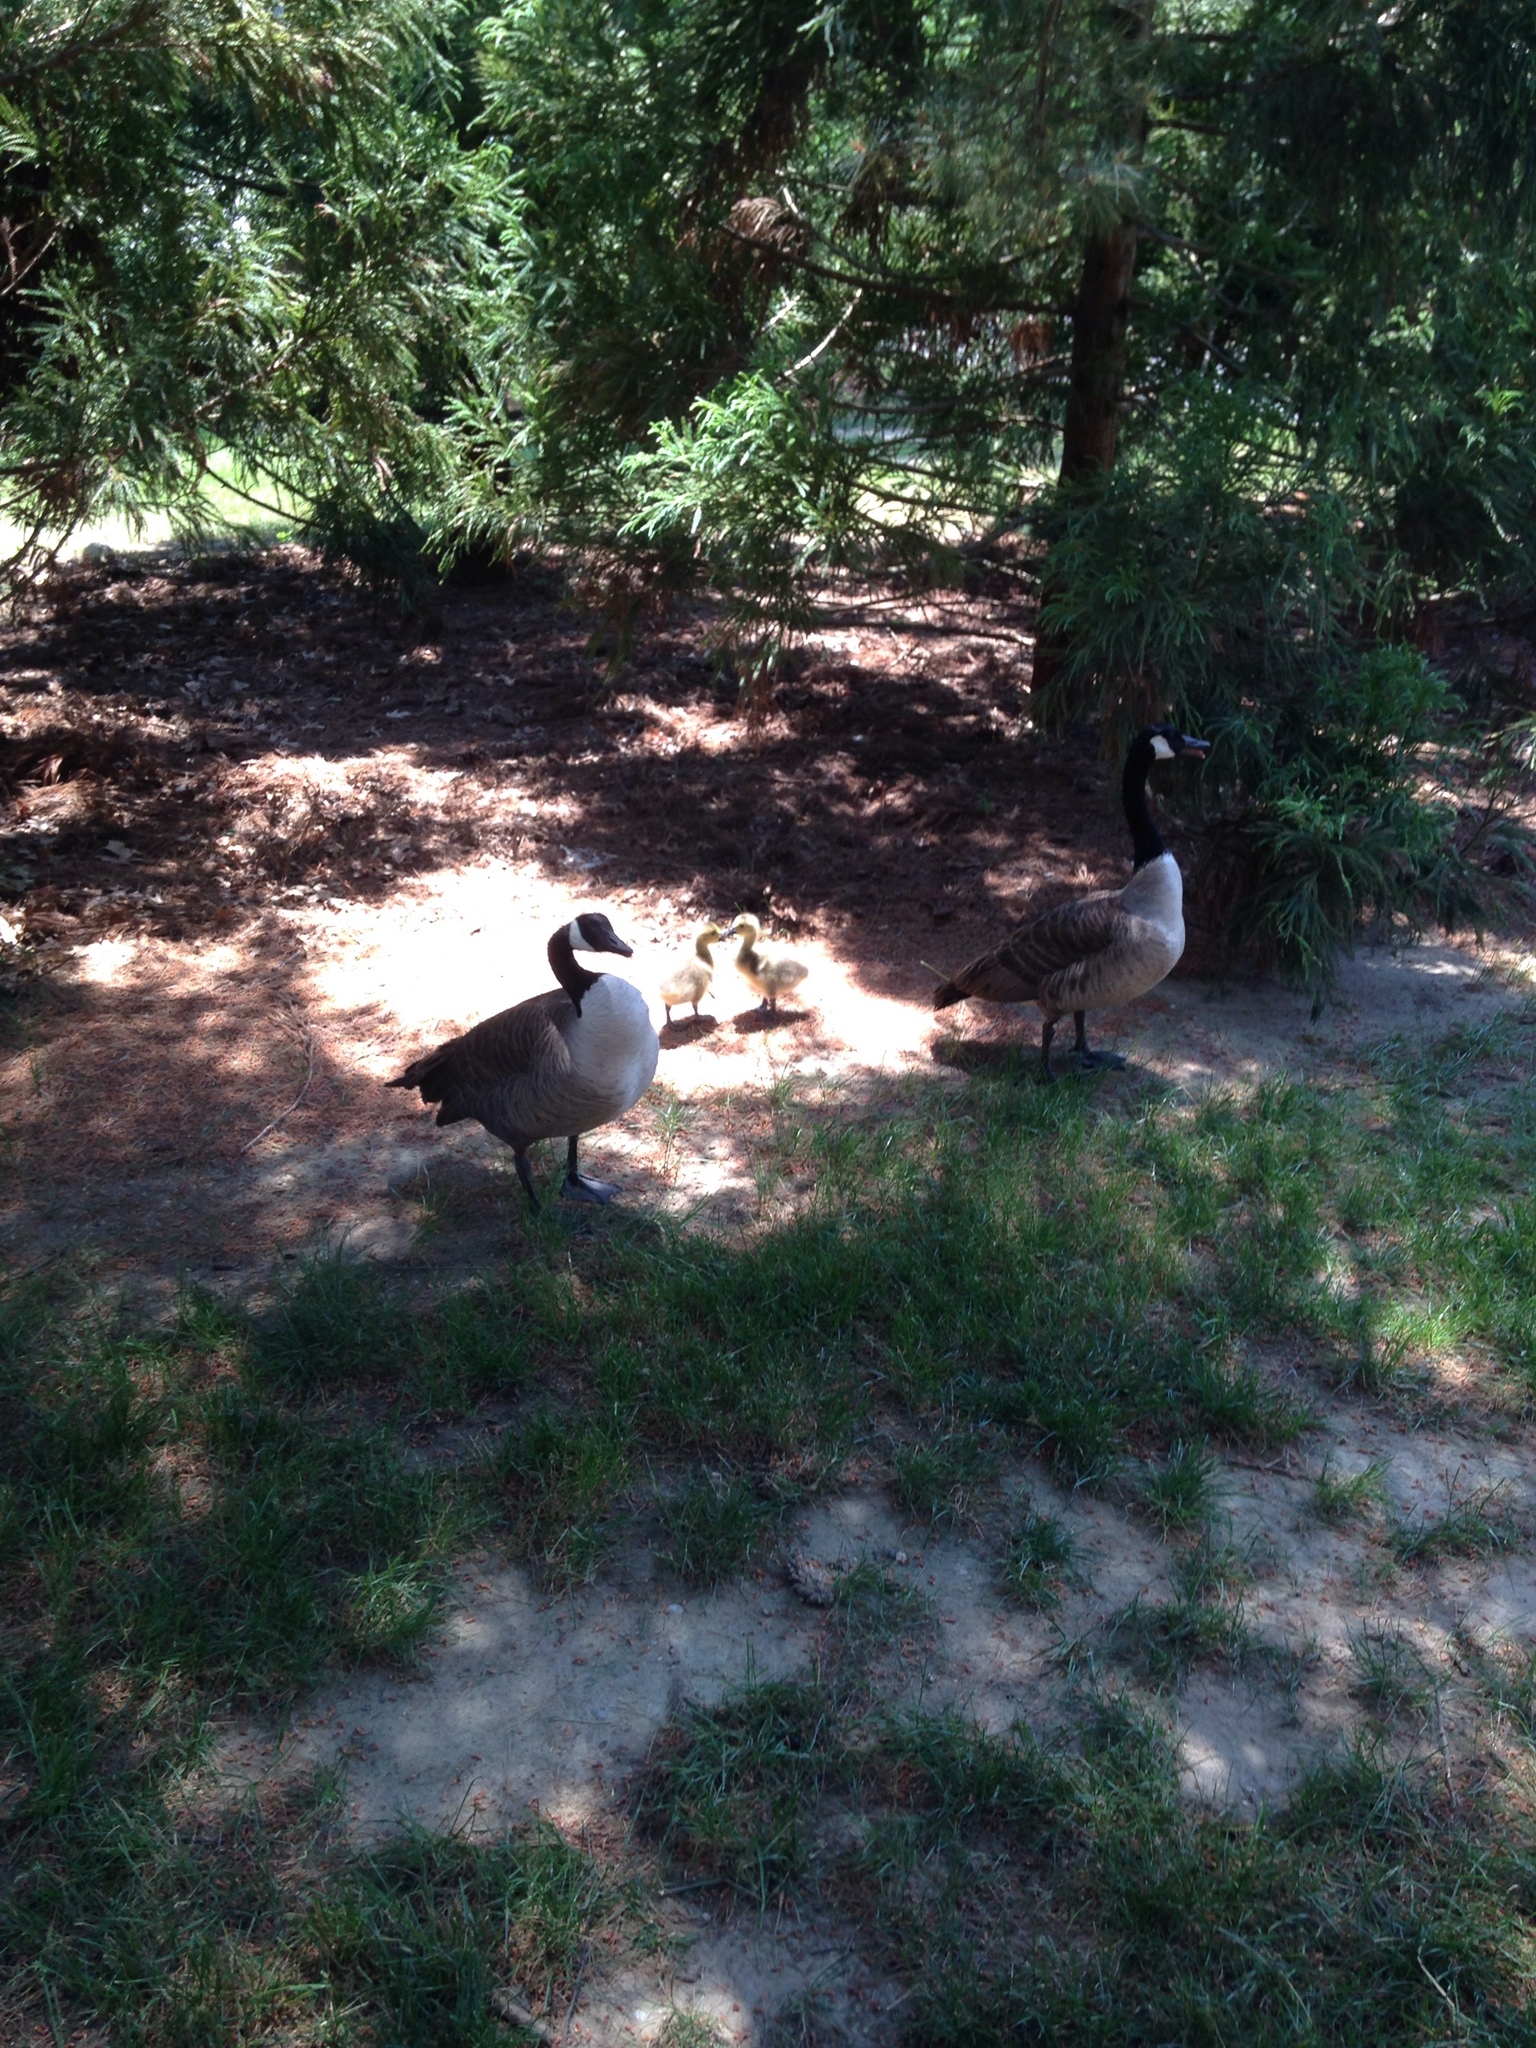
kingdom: Animalia
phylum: Chordata
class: Aves
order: Anseriformes
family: Anatidae
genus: Branta
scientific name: Branta canadensis
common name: Canada goose
